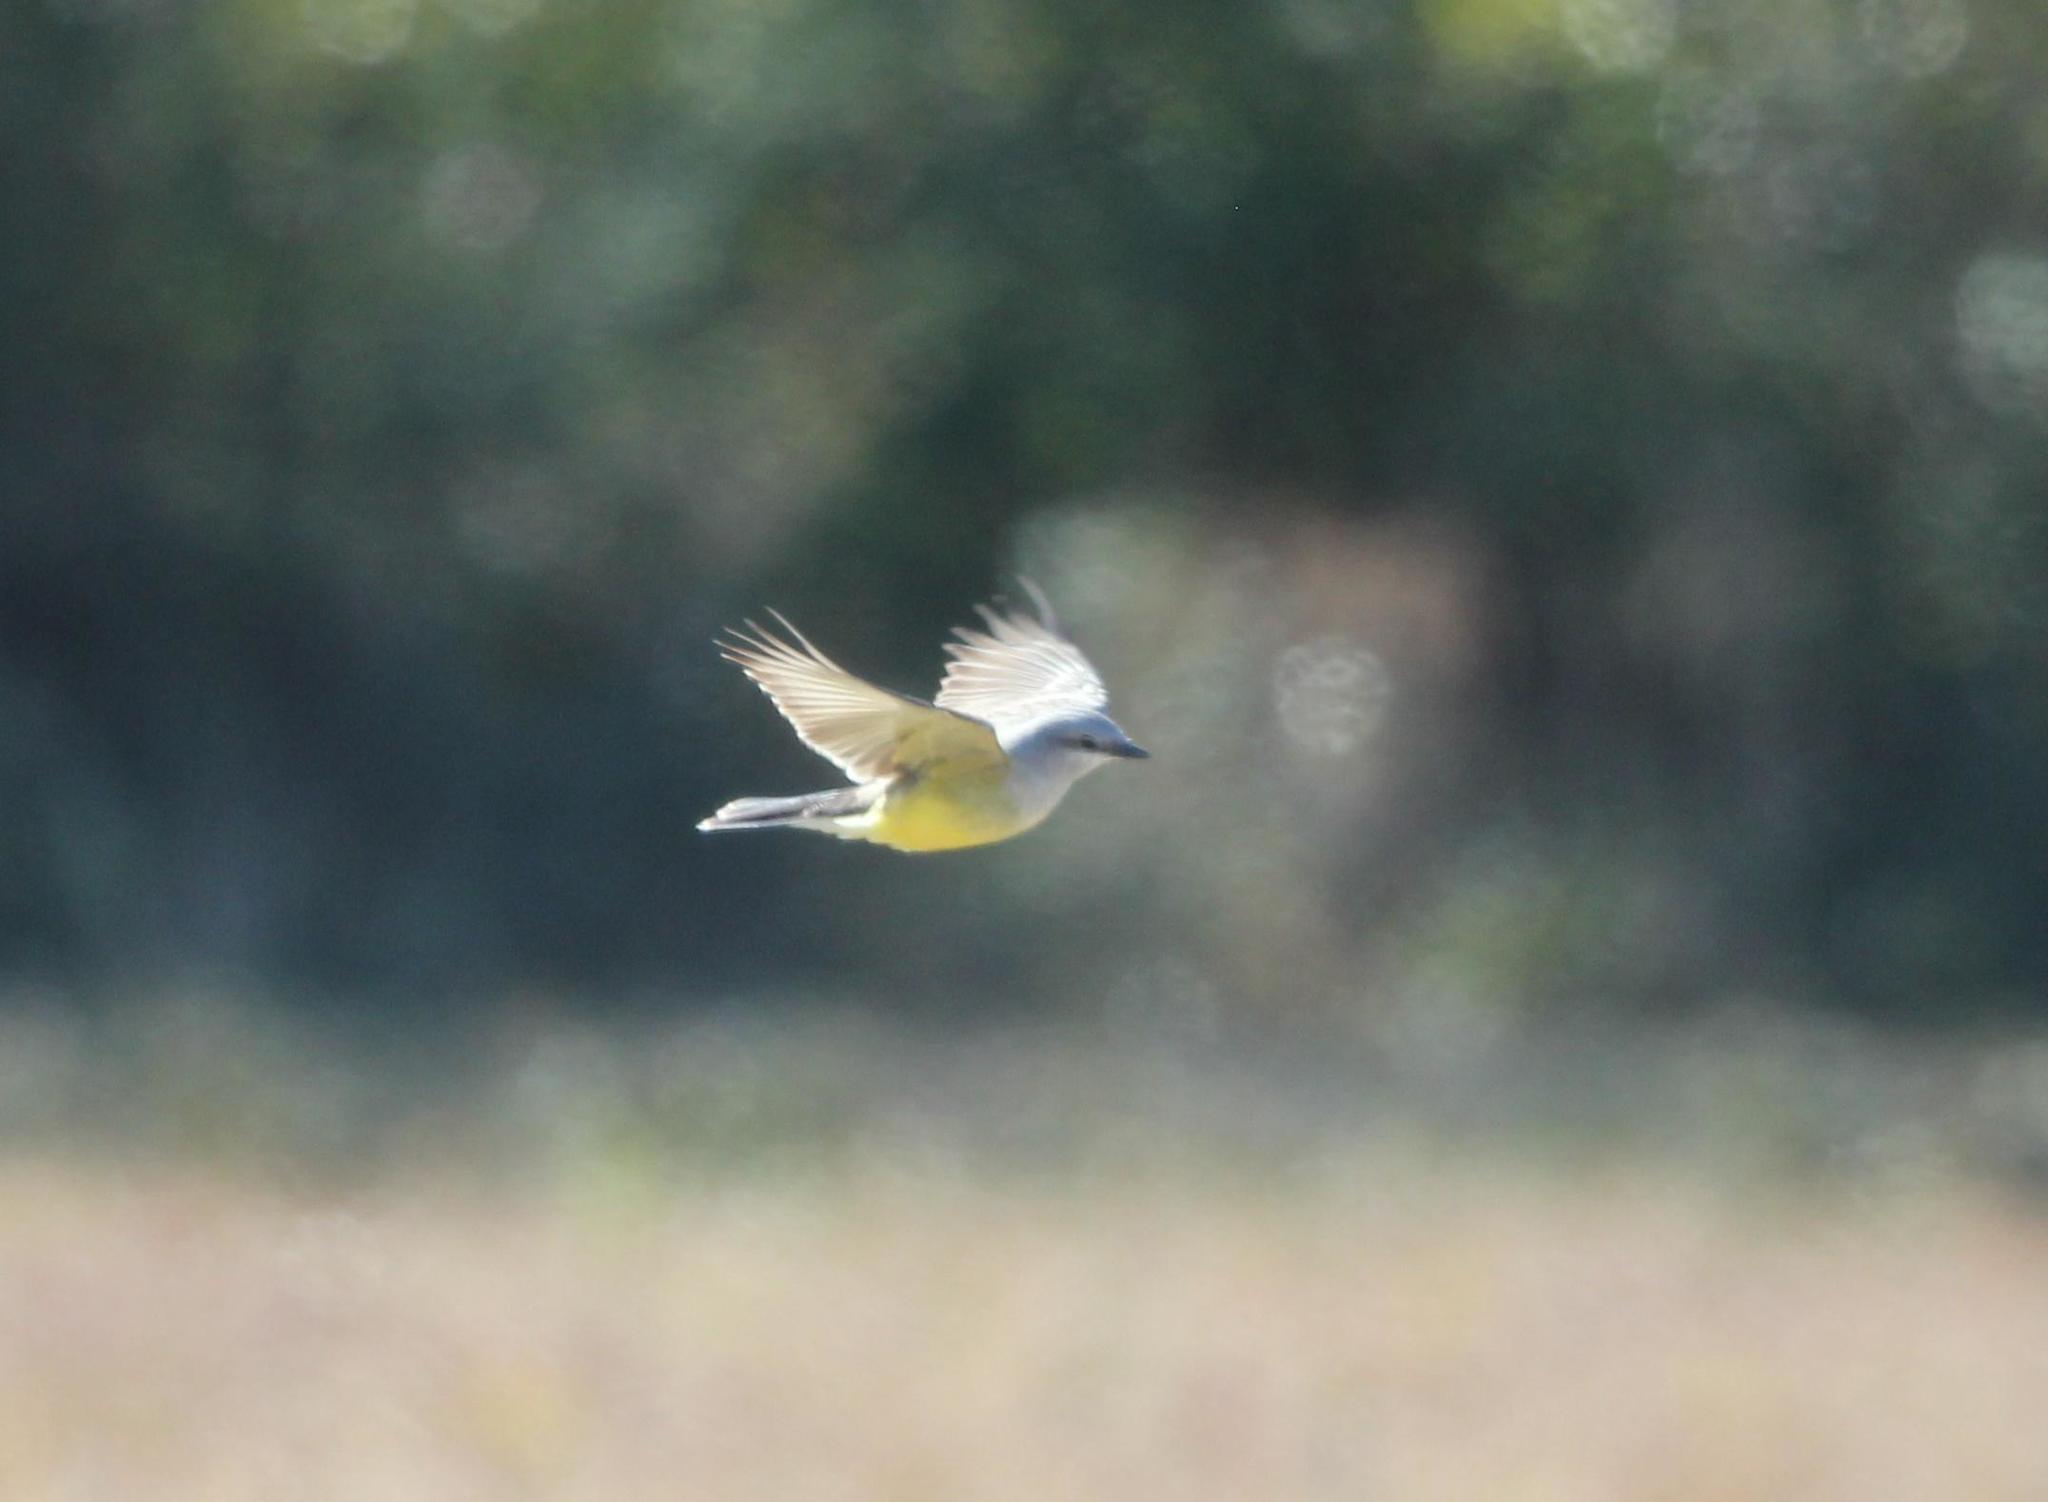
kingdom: Animalia
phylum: Chordata
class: Aves
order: Passeriformes
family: Tyrannidae
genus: Tyrannus
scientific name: Tyrannus verticalis
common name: Western kingbird
